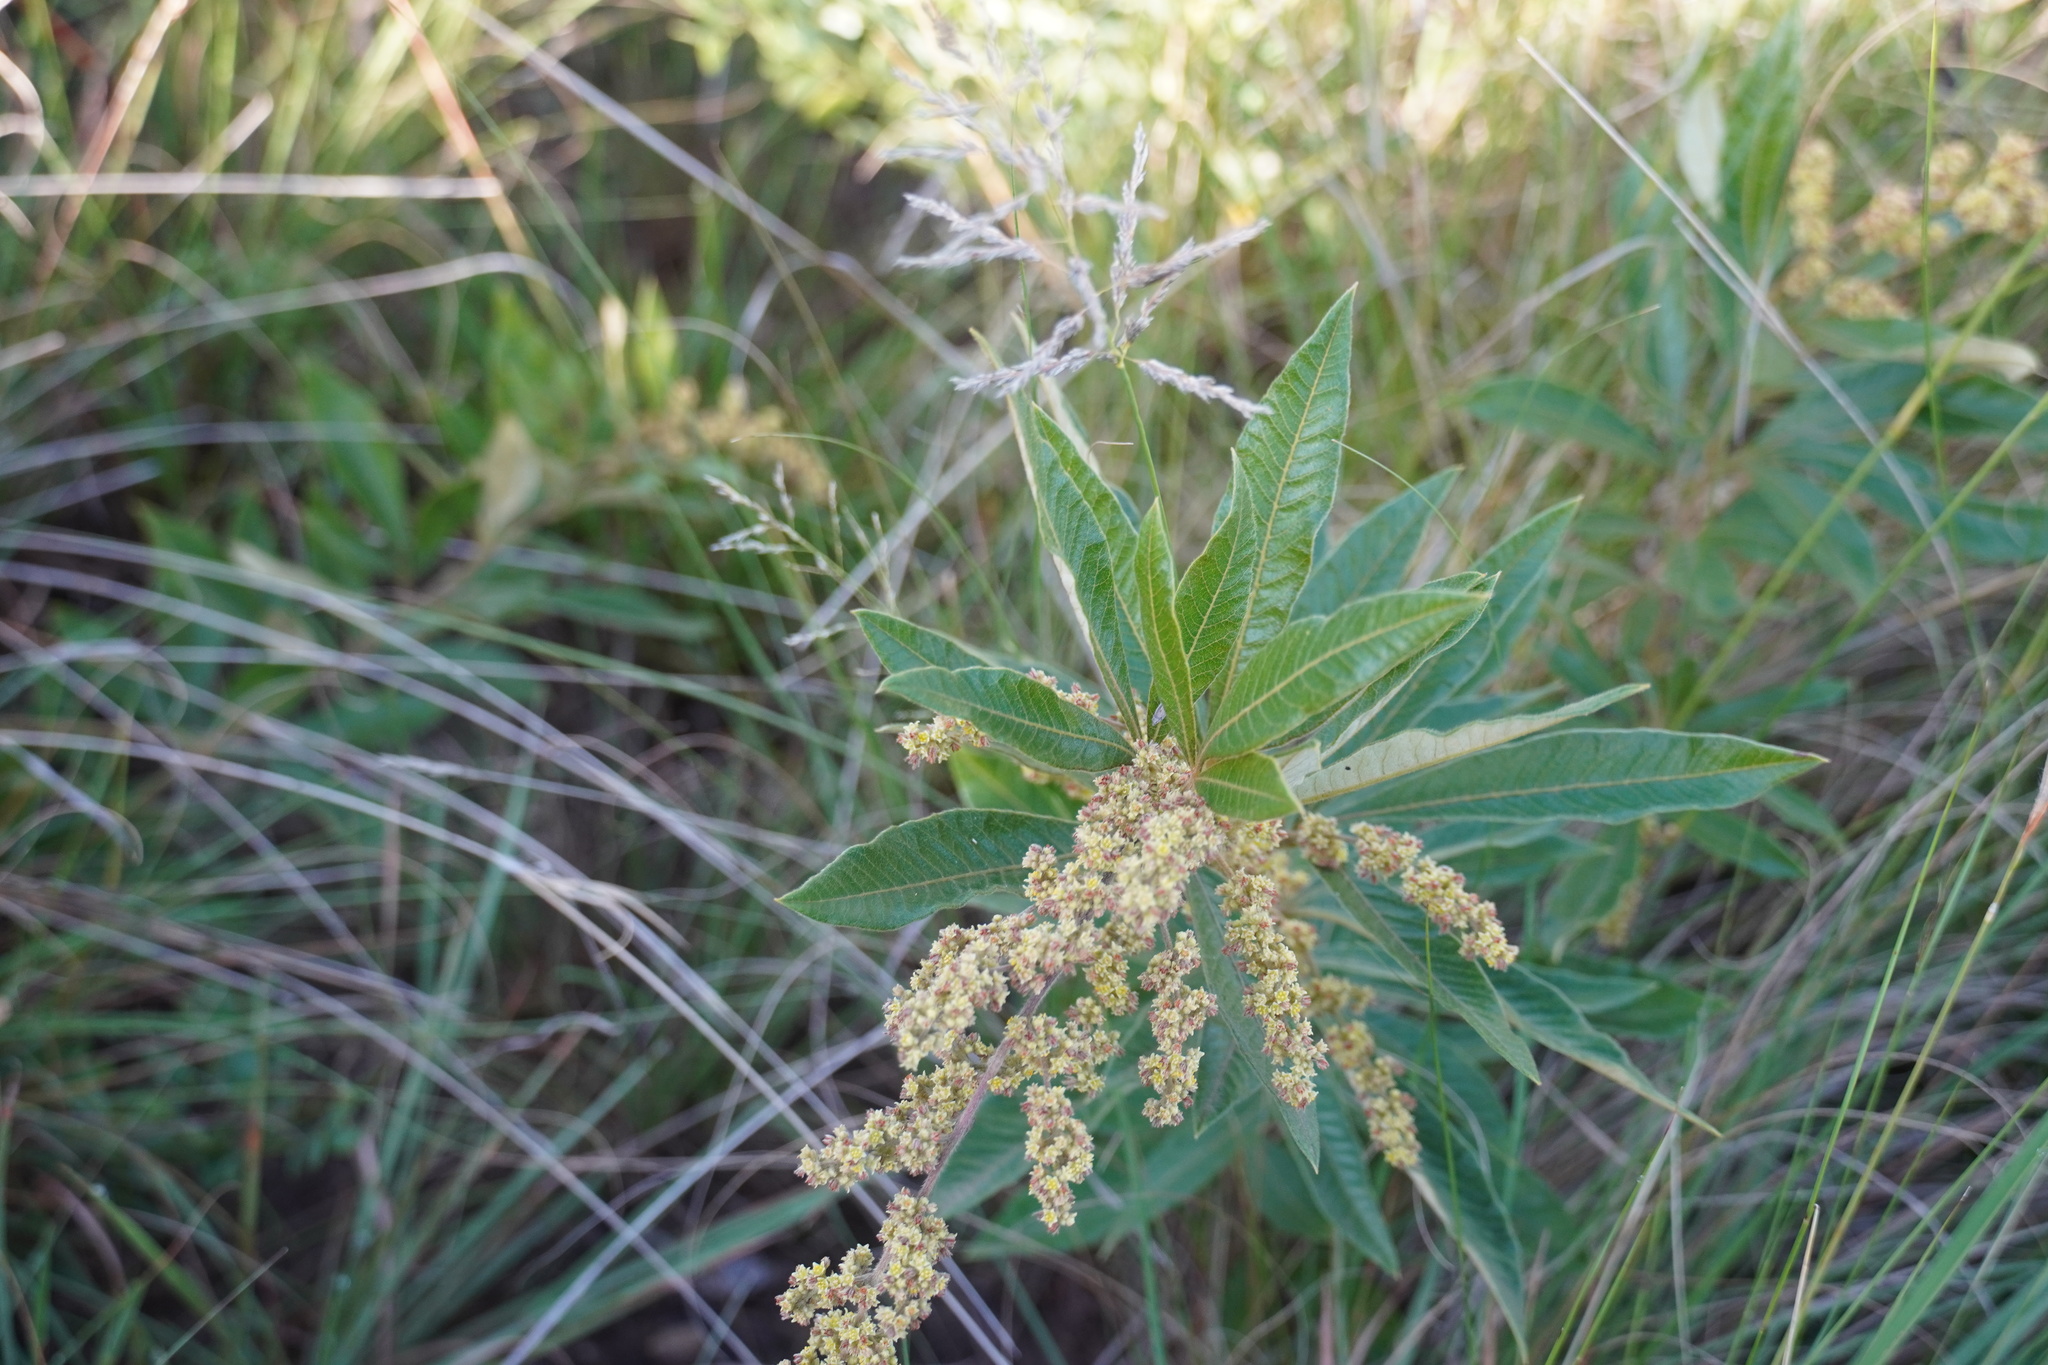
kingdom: Plantae
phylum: Tracheophyta
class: Magnoliopsida
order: Sapindales
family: Anacardiaceae
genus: Searsia
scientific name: Searsia discolor
